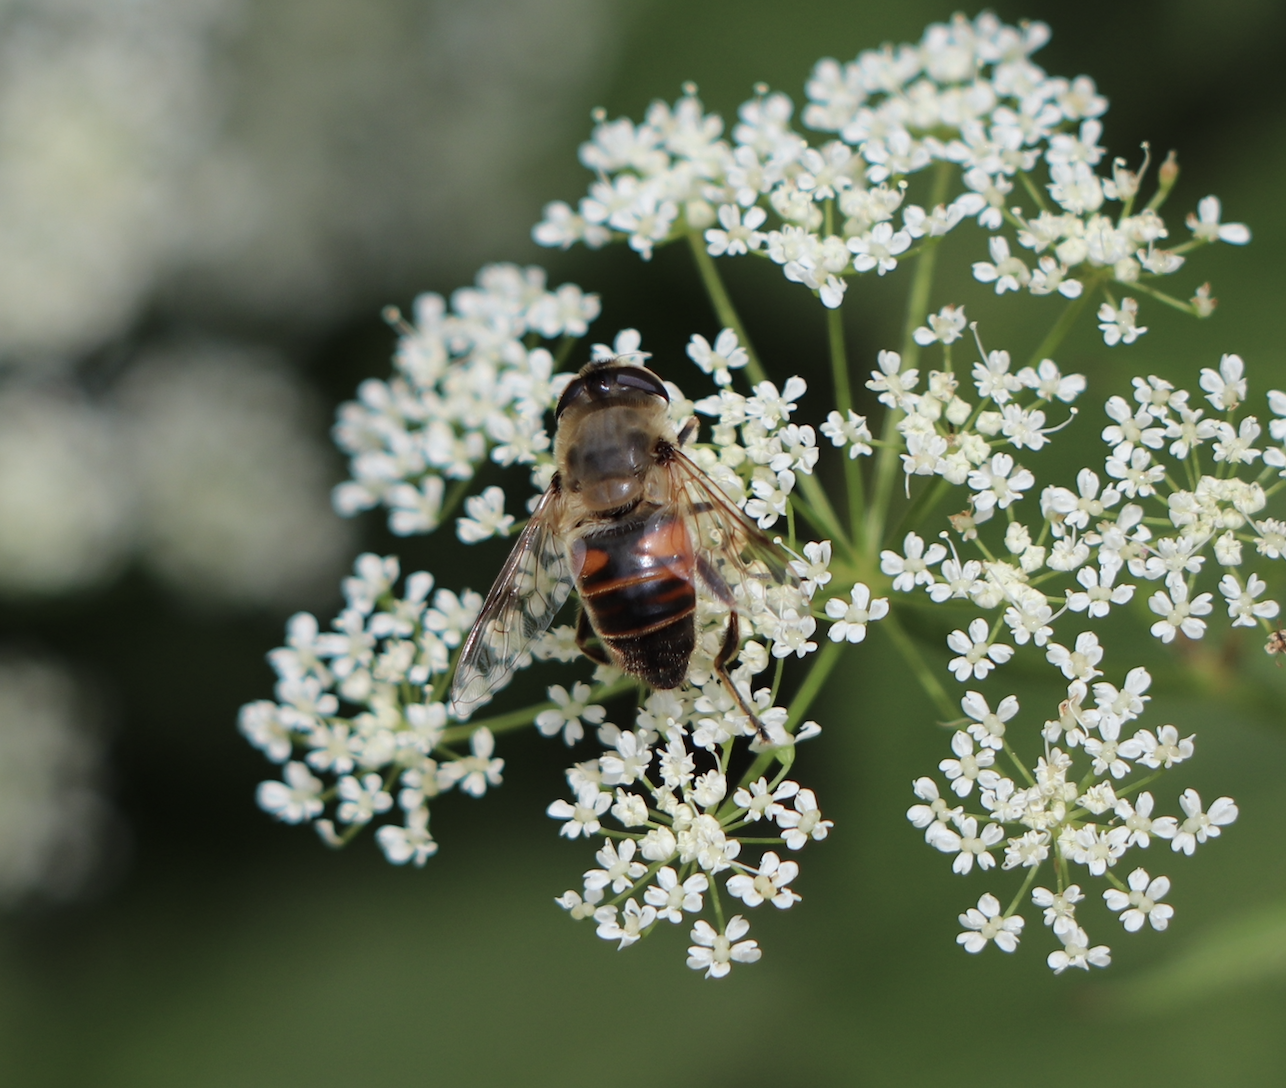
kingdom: Animalia
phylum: Arthropoda
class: Insecta
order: Diptera
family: Syrphidae
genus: Eristalis
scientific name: Eristalis tenax
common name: Drone fly
